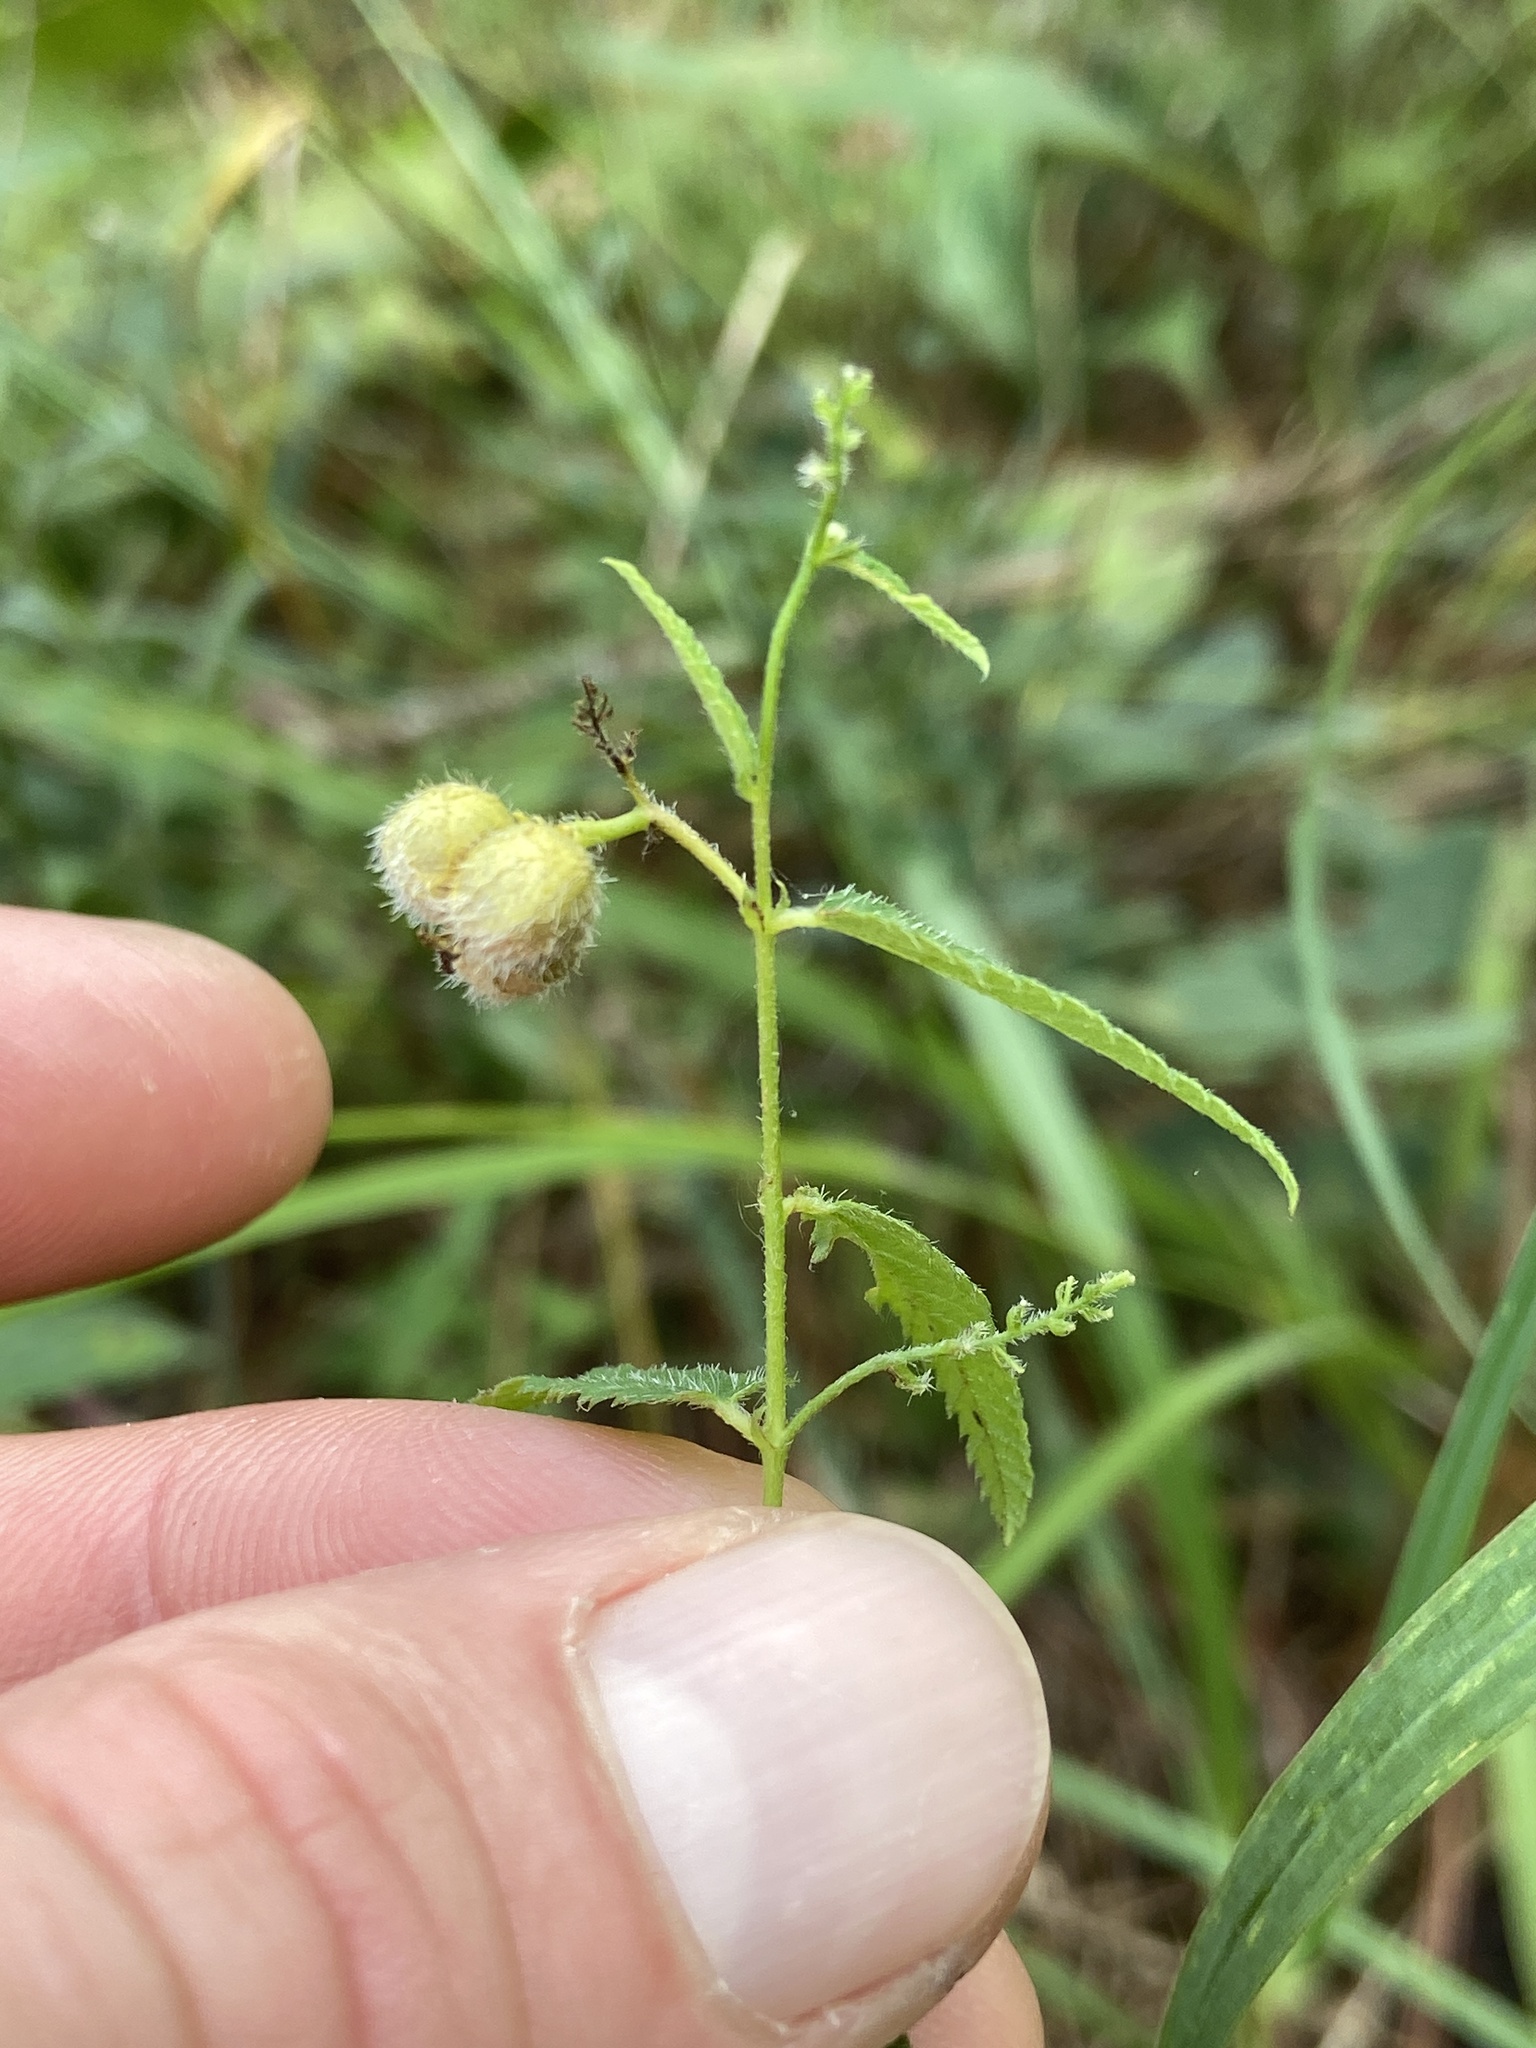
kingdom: Plantae
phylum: Tracheophyta
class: Magnoliopsida
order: Malpighiales
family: Euphorbiaceae
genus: Tragia
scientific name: Tragia urticifolia
